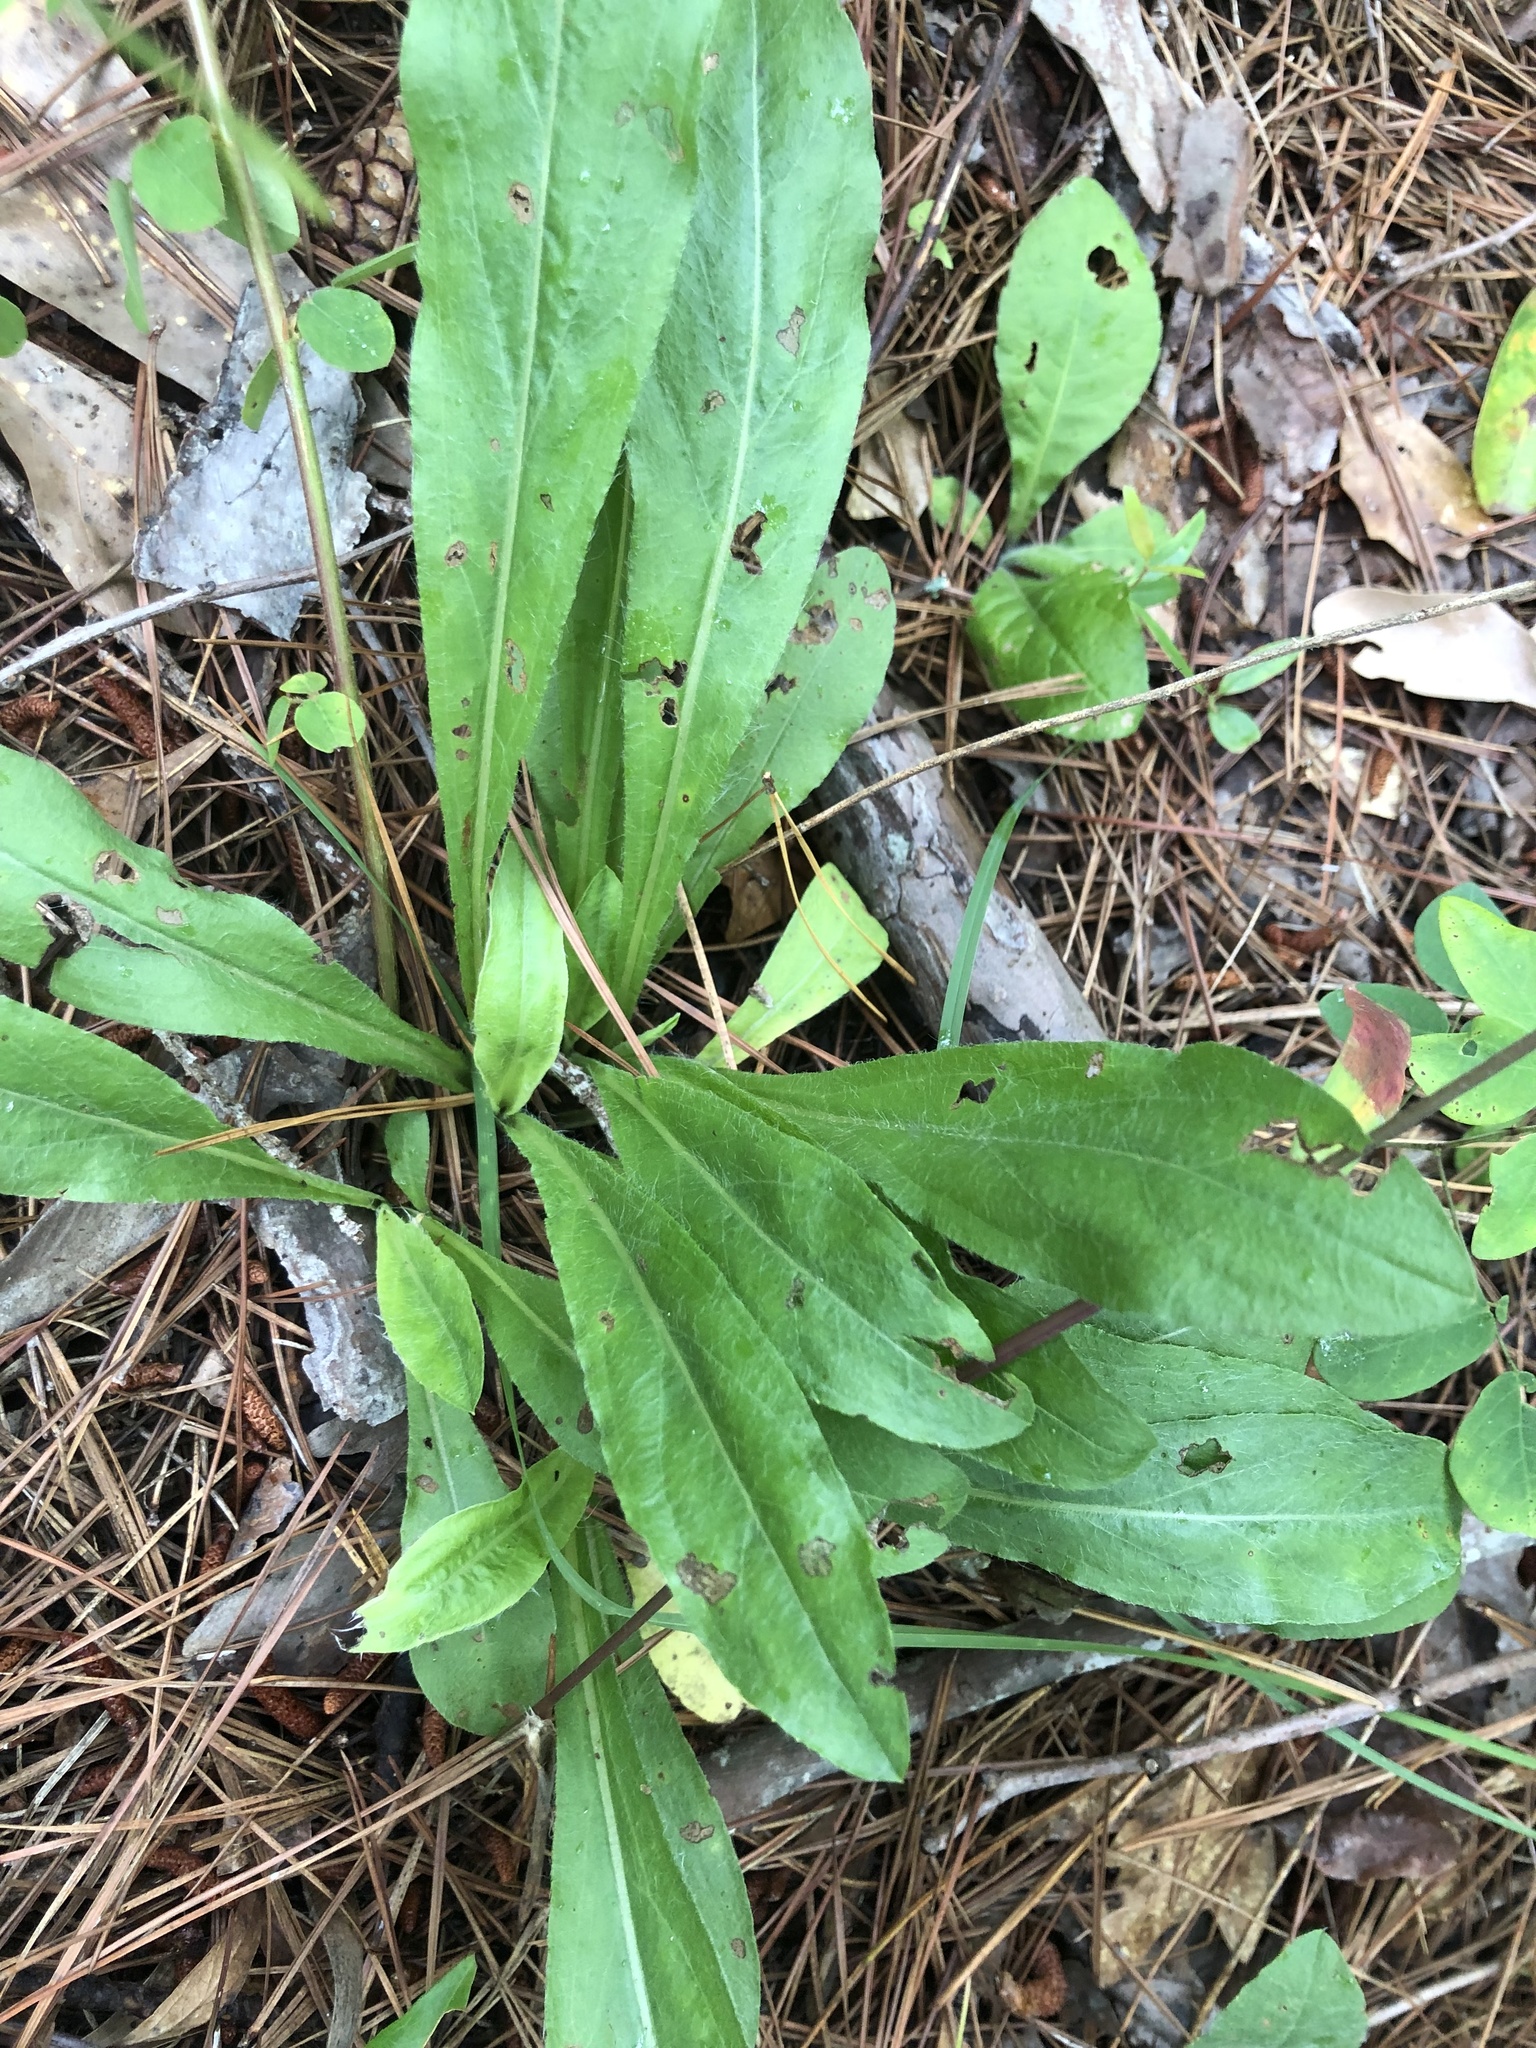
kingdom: Plantae
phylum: Tracheophyta
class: Magnoliopsida
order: Asterales
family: Asteraceae
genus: Chrysopsis
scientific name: Chrysopsis mariana
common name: Maryland golden-aster
